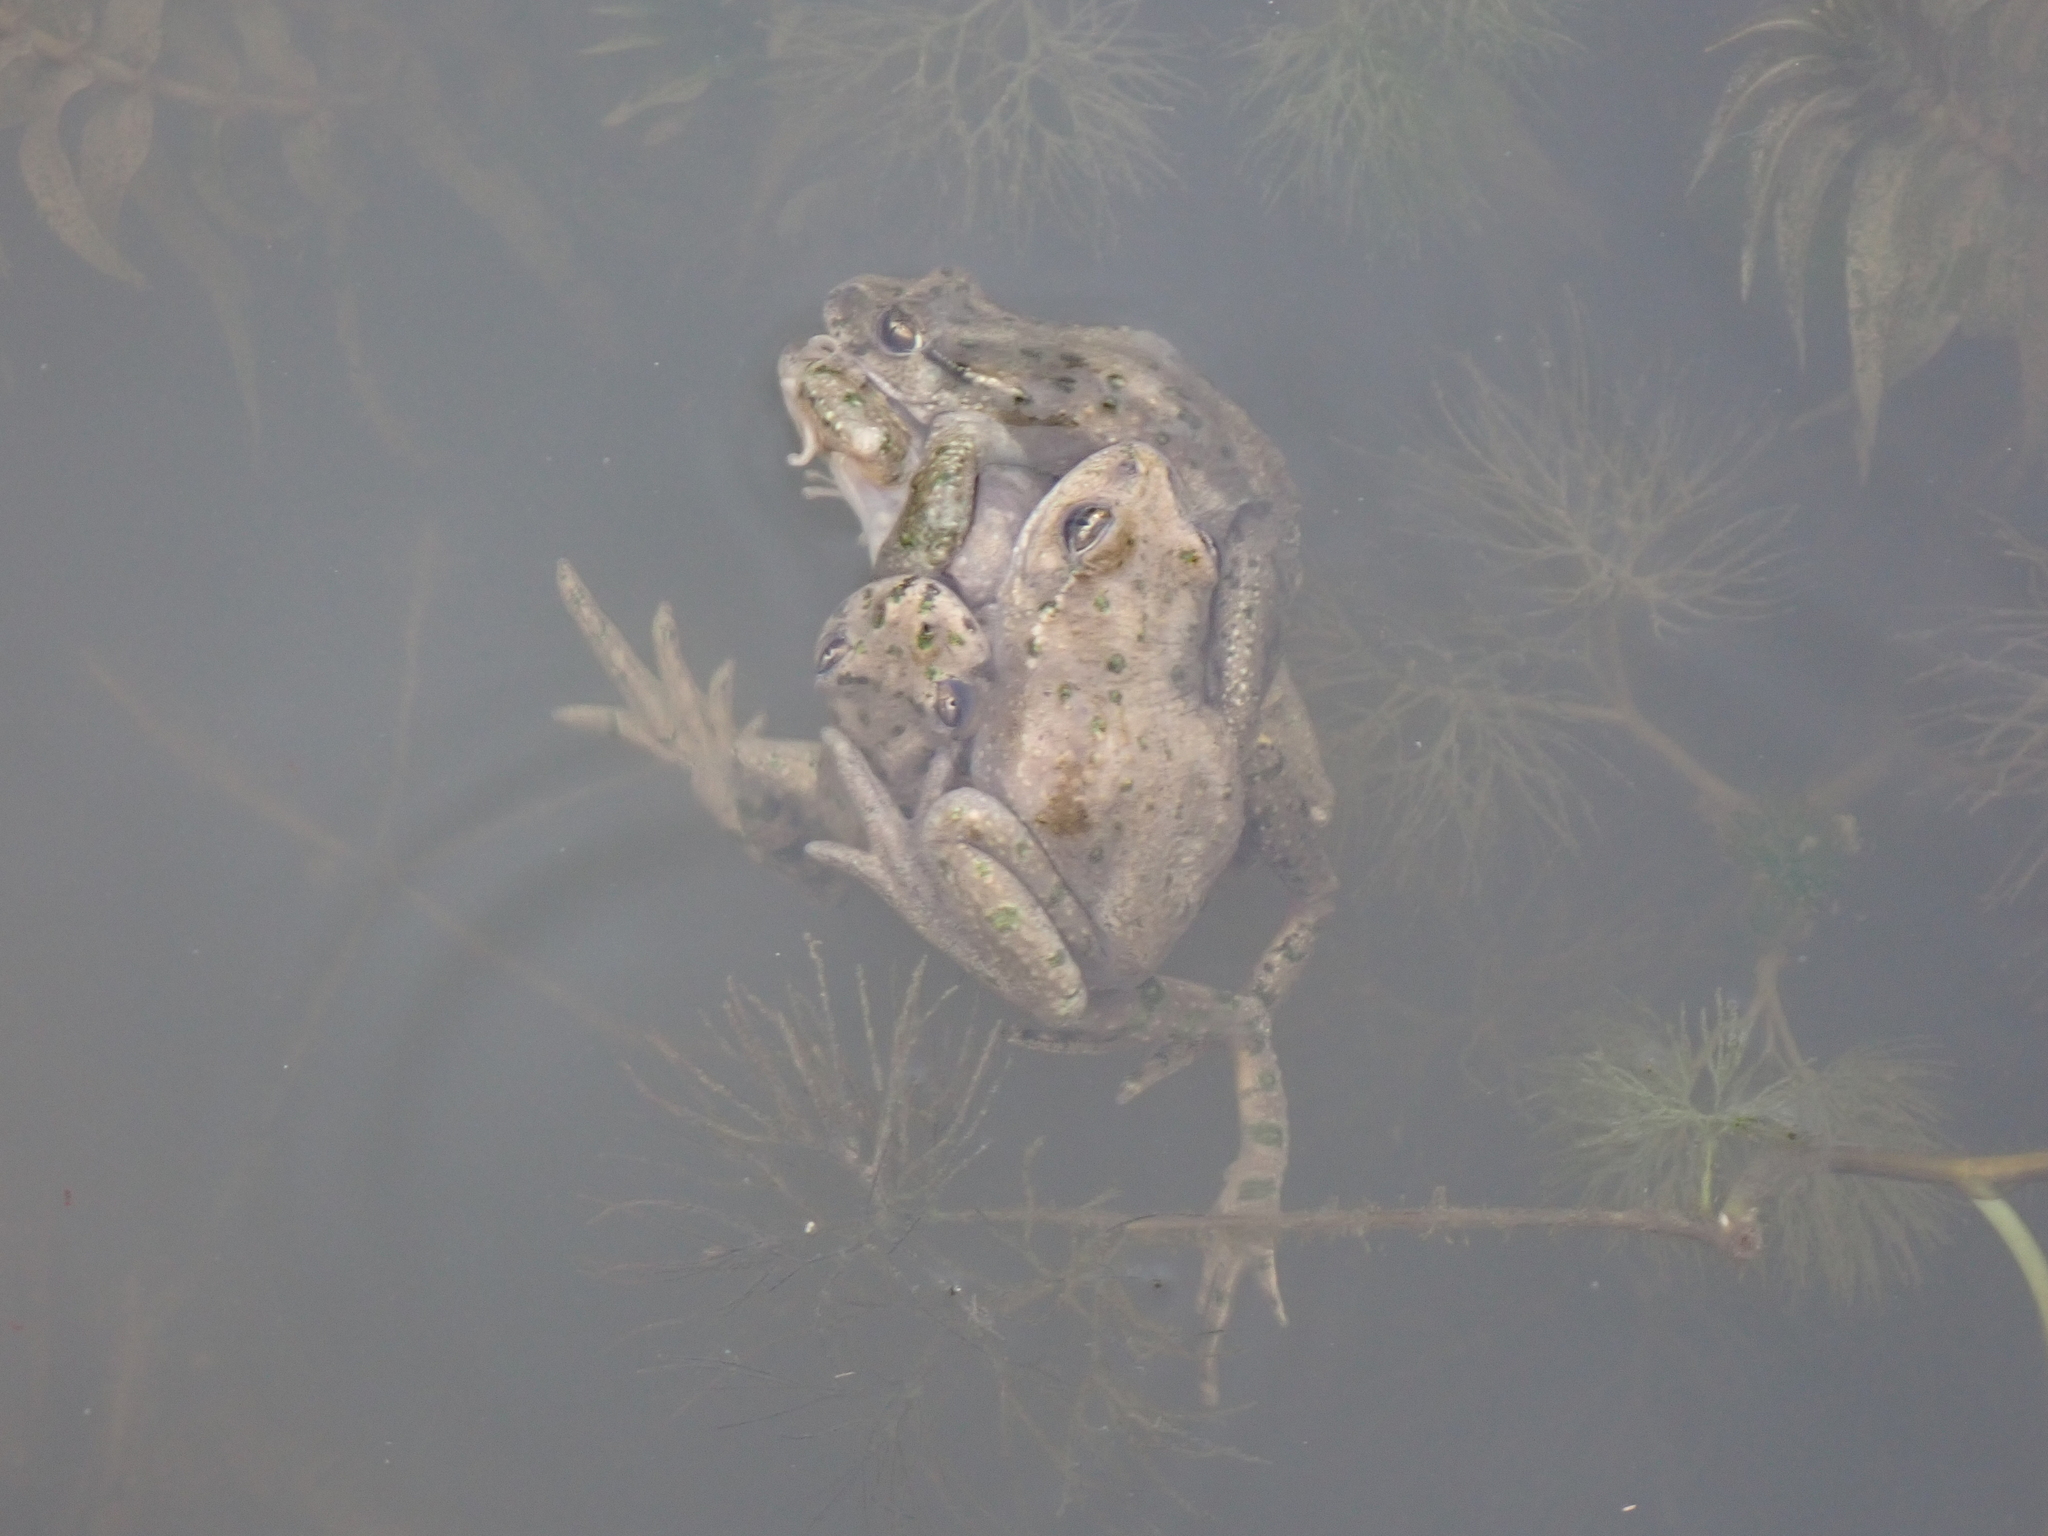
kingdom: Animalia
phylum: Chordata
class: Amphibia
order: Anura
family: Pelodytidae
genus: Pelodytes
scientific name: Pelodytes punctatus
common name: Parsley frog
